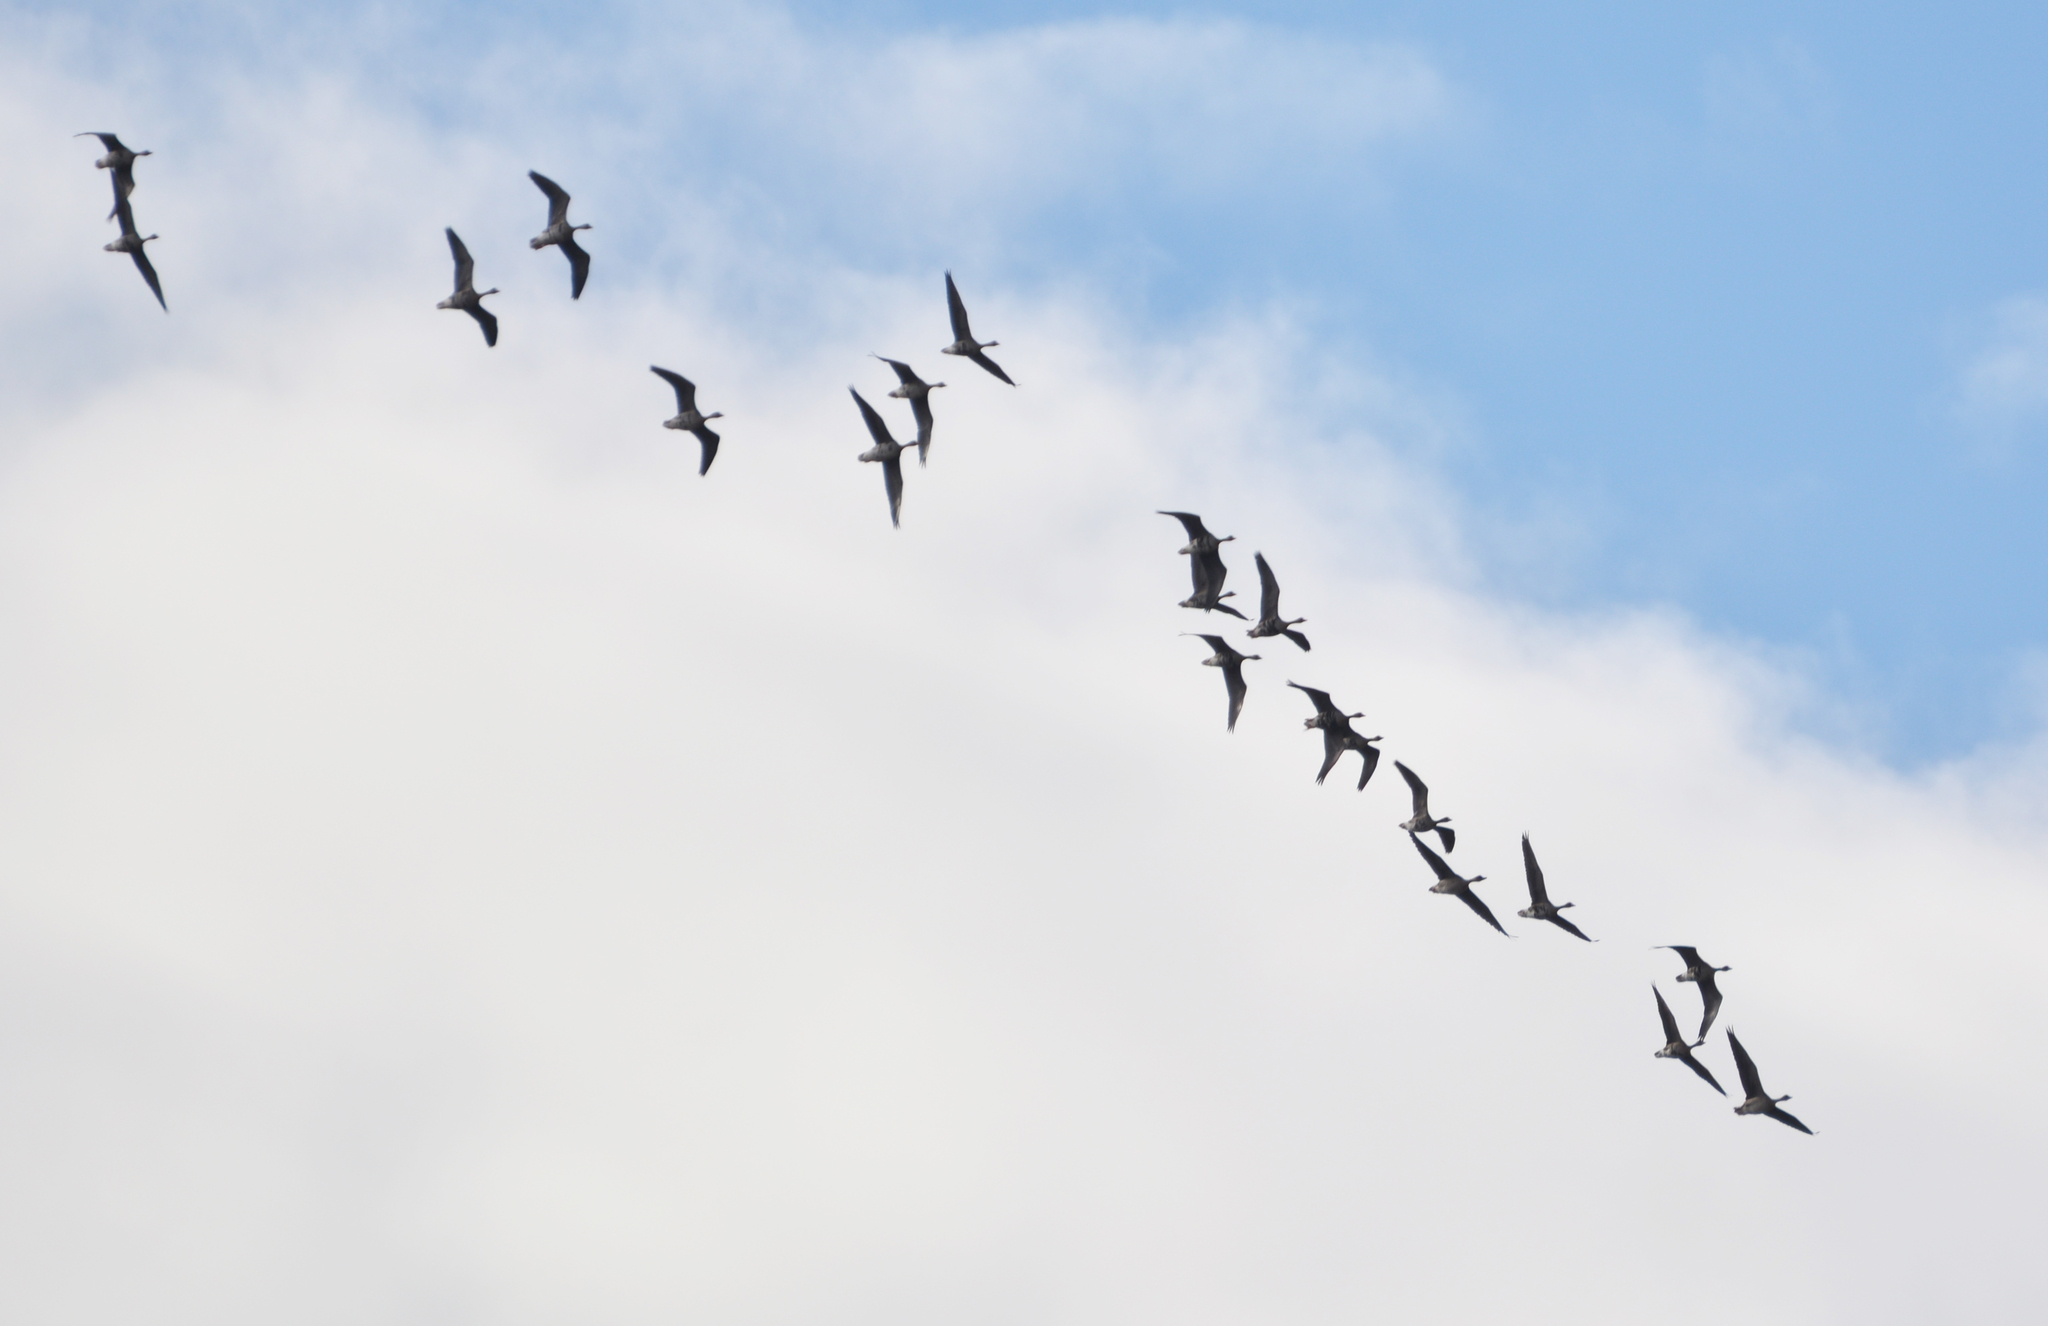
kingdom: Animalia
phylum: Chordata
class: Aves
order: Anseriformes
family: Anatidae
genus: Anser
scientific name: Anser albifrons
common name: Greater white-fronted goose
